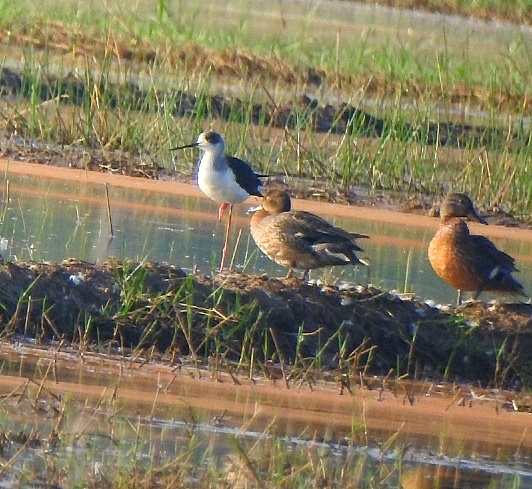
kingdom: Animalia
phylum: Chordata
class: Aves
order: Charadriiformes
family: Recurvirostridae
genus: Himantopus
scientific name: Himantopus himantopus
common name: Black-winged stilt
